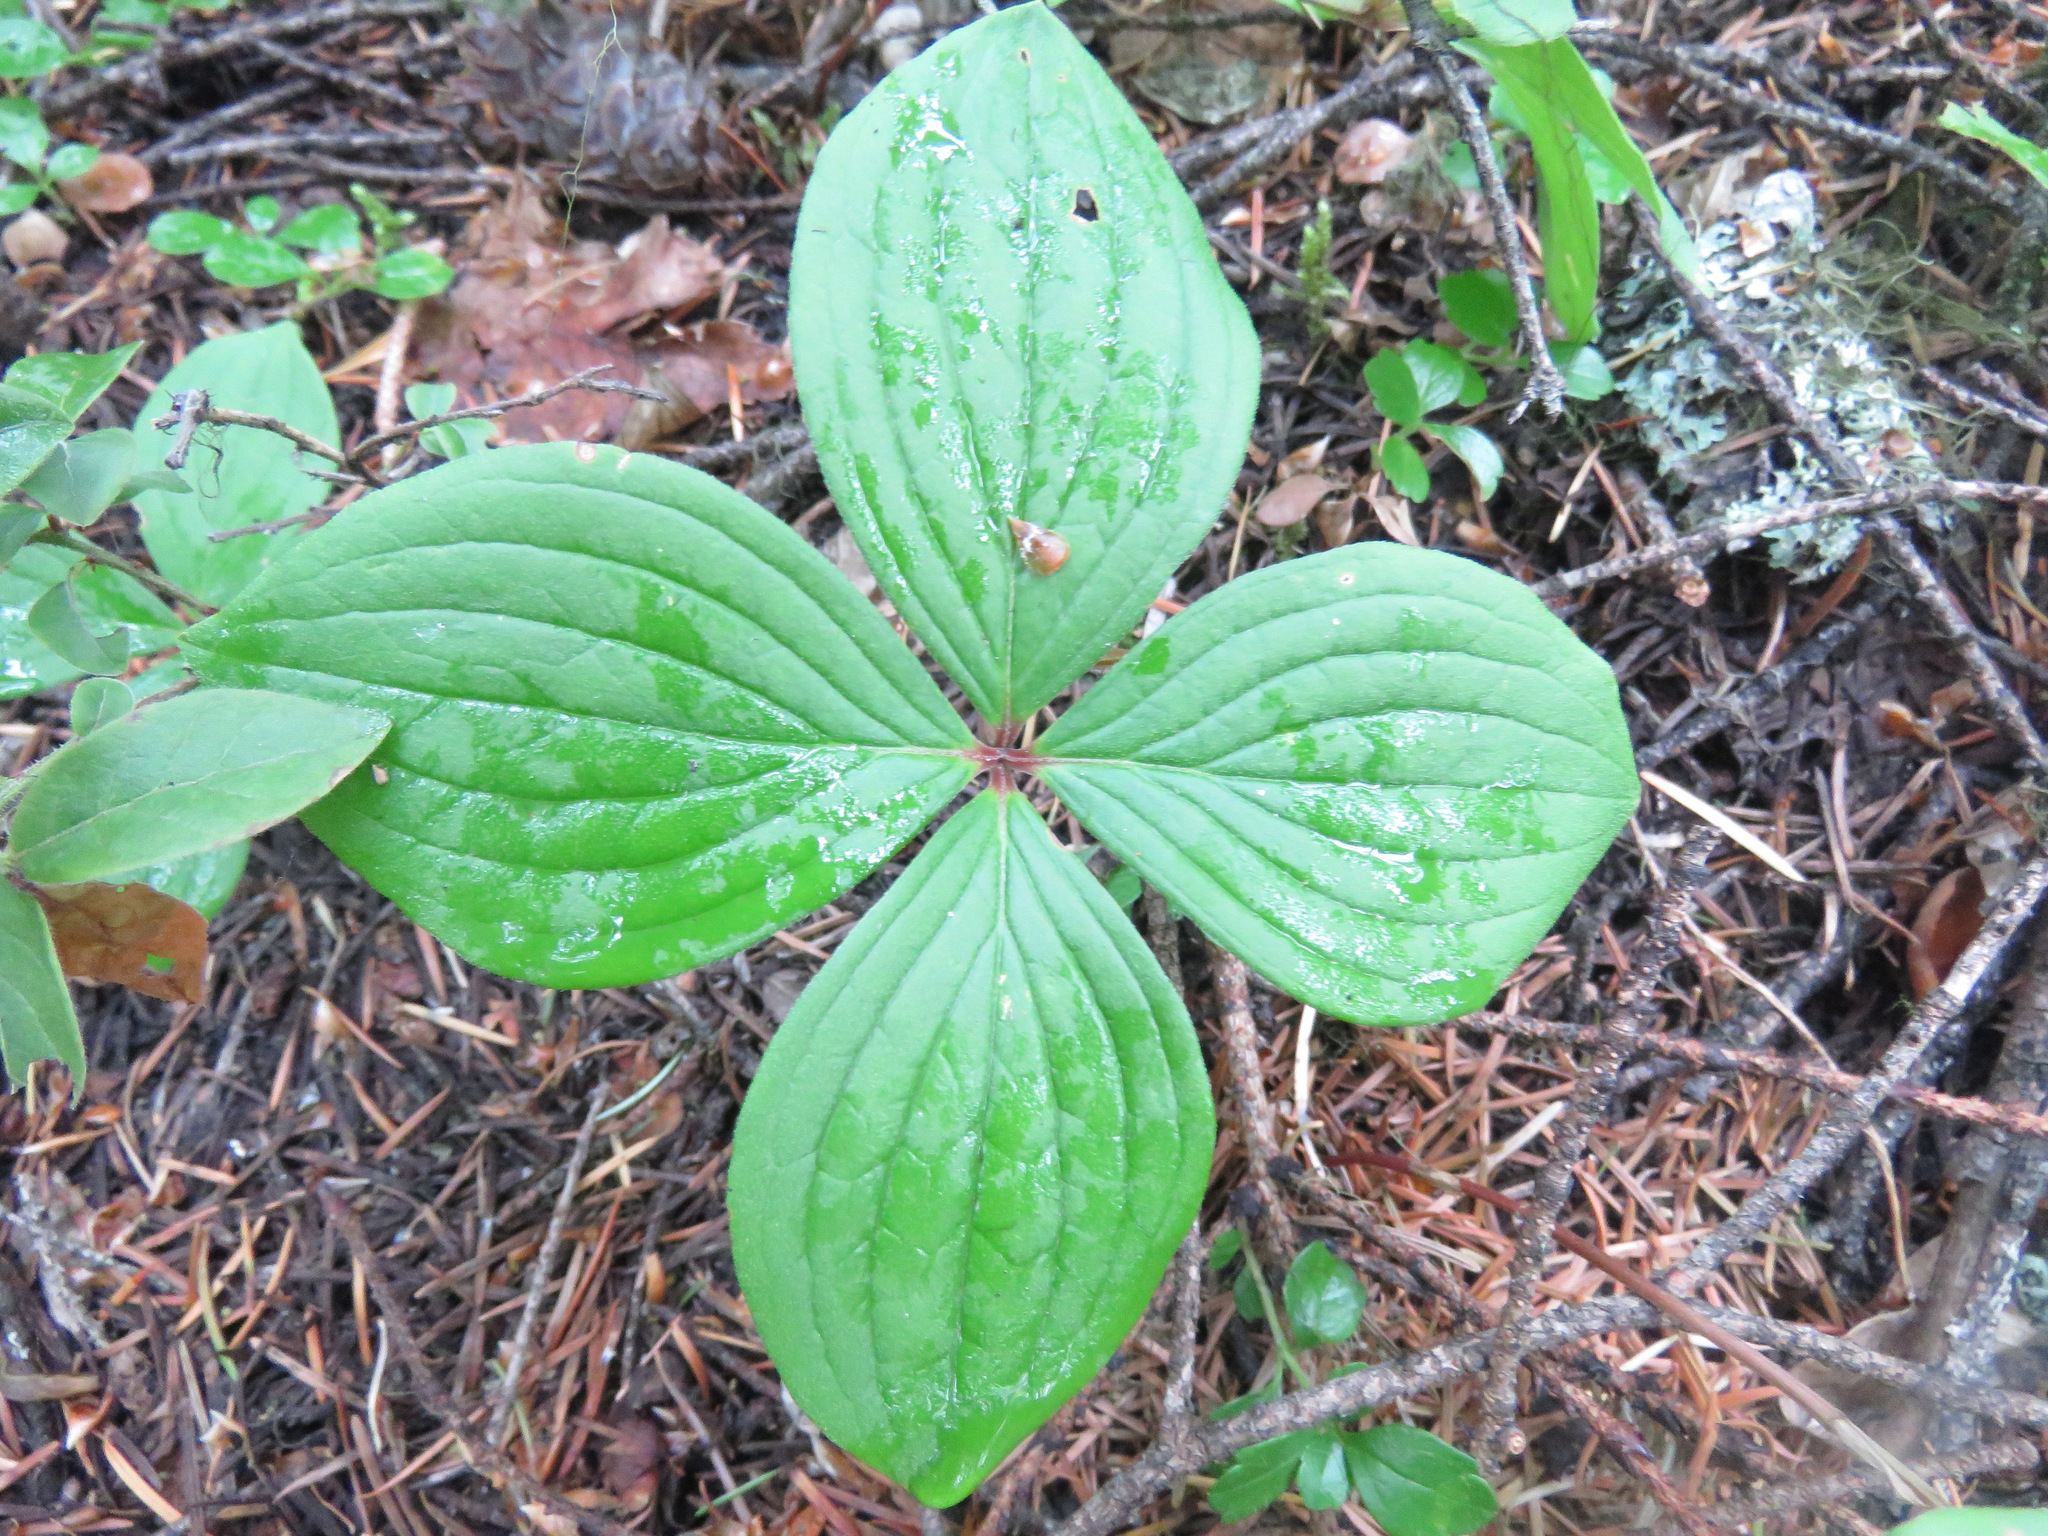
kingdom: Plantae
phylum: Tracheophyta
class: Magnoliopsida
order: Cornales
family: Cornaceae
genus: Cornus
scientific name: Cornus canadensis
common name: Creeping dogwood
